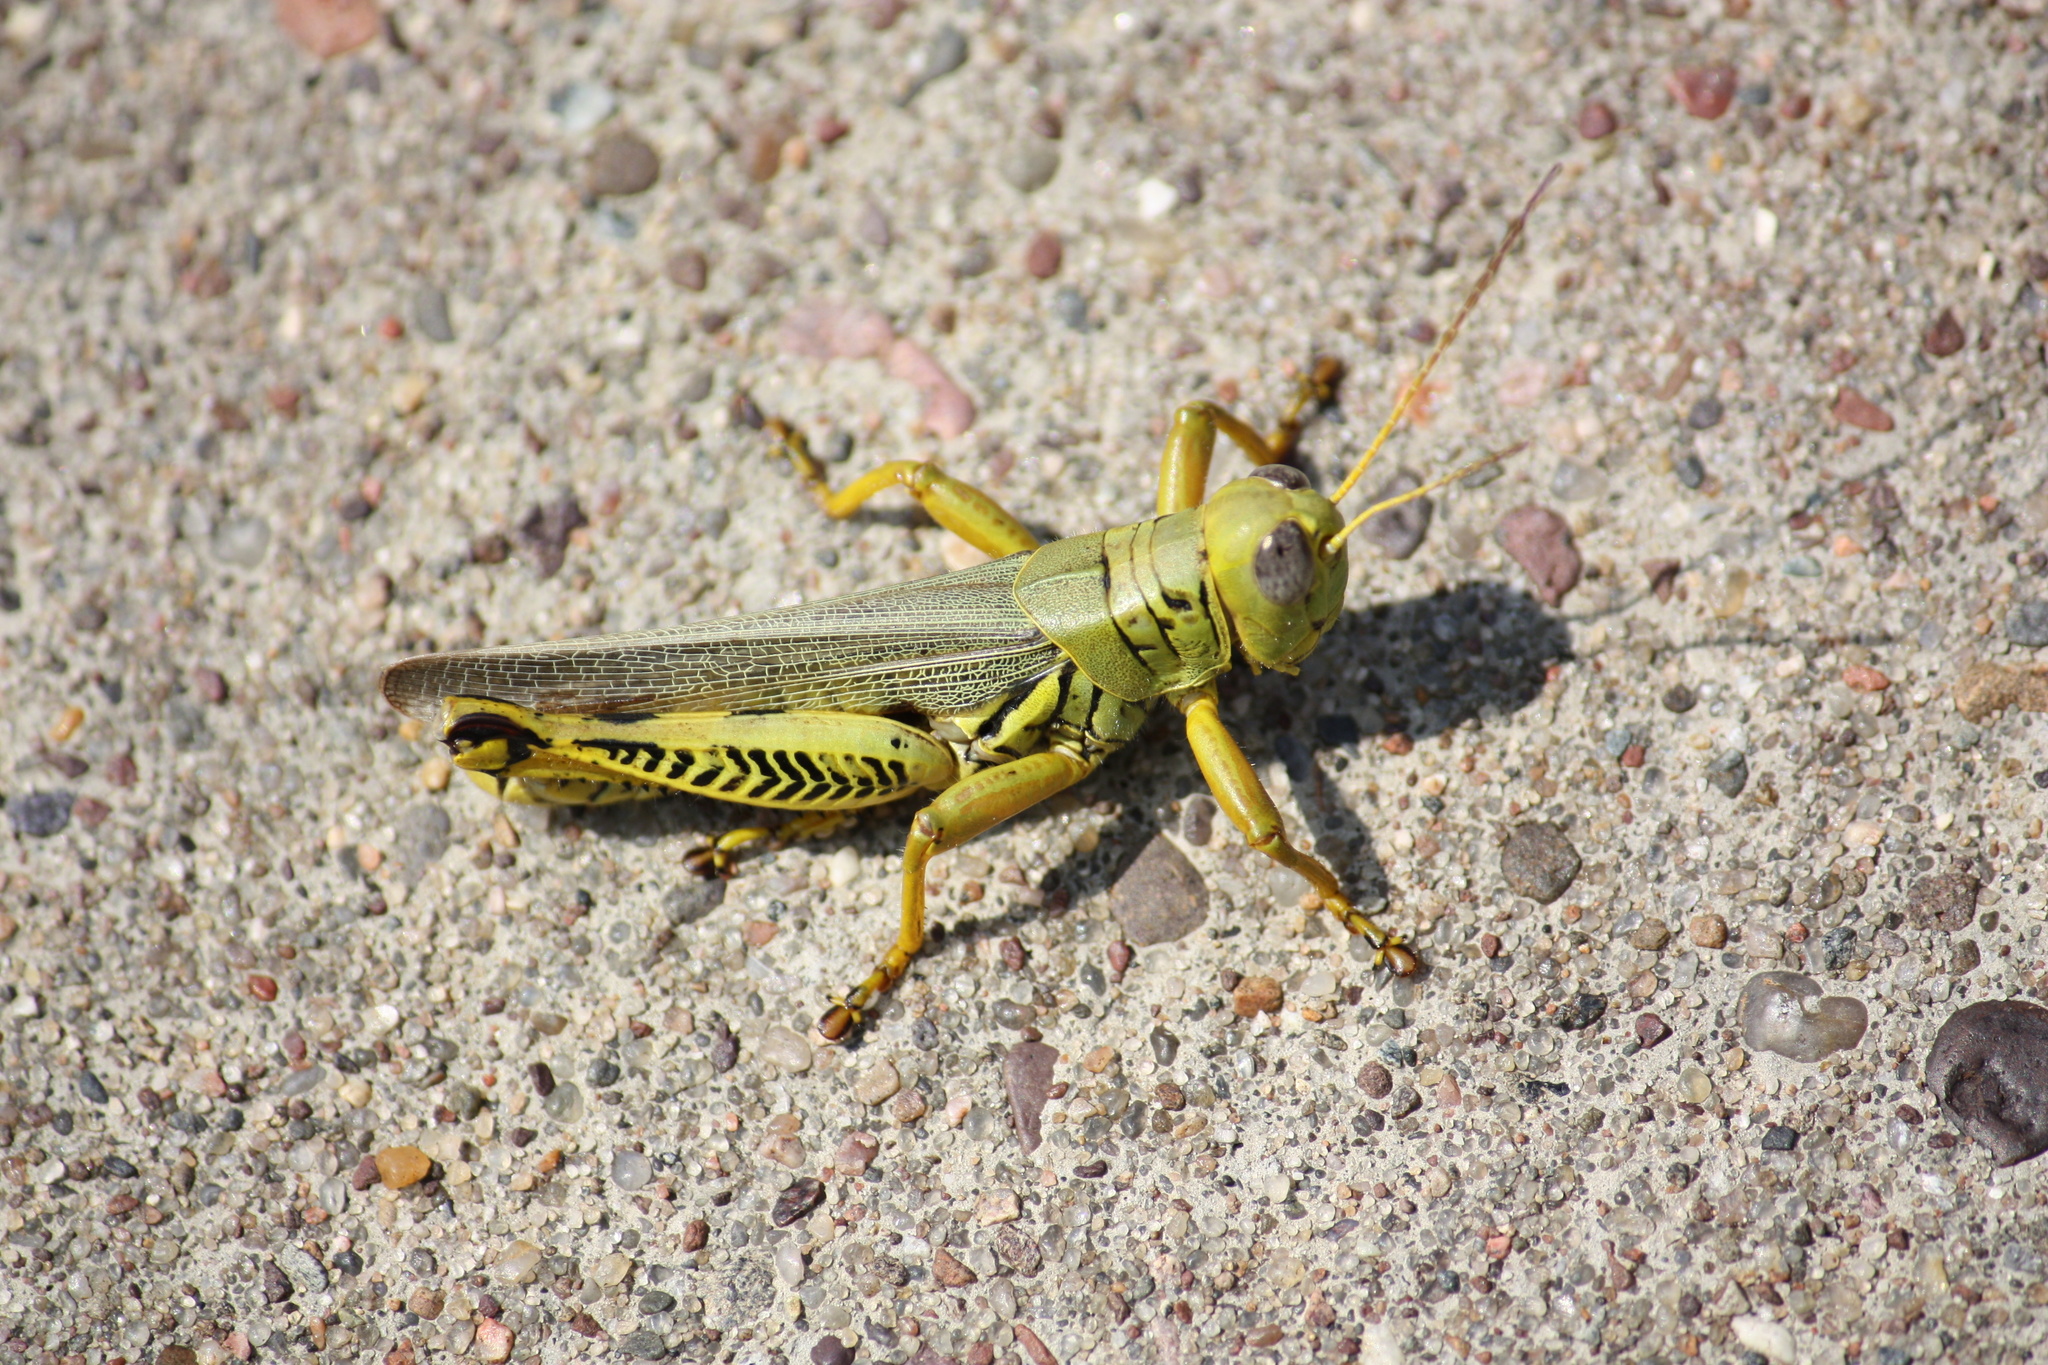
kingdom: Animalia
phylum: Arthropoda
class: Insecta
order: Orthoptera
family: Acrididae
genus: Melanoplus
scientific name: Melanoplus differentialis
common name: Differential grasshopper
